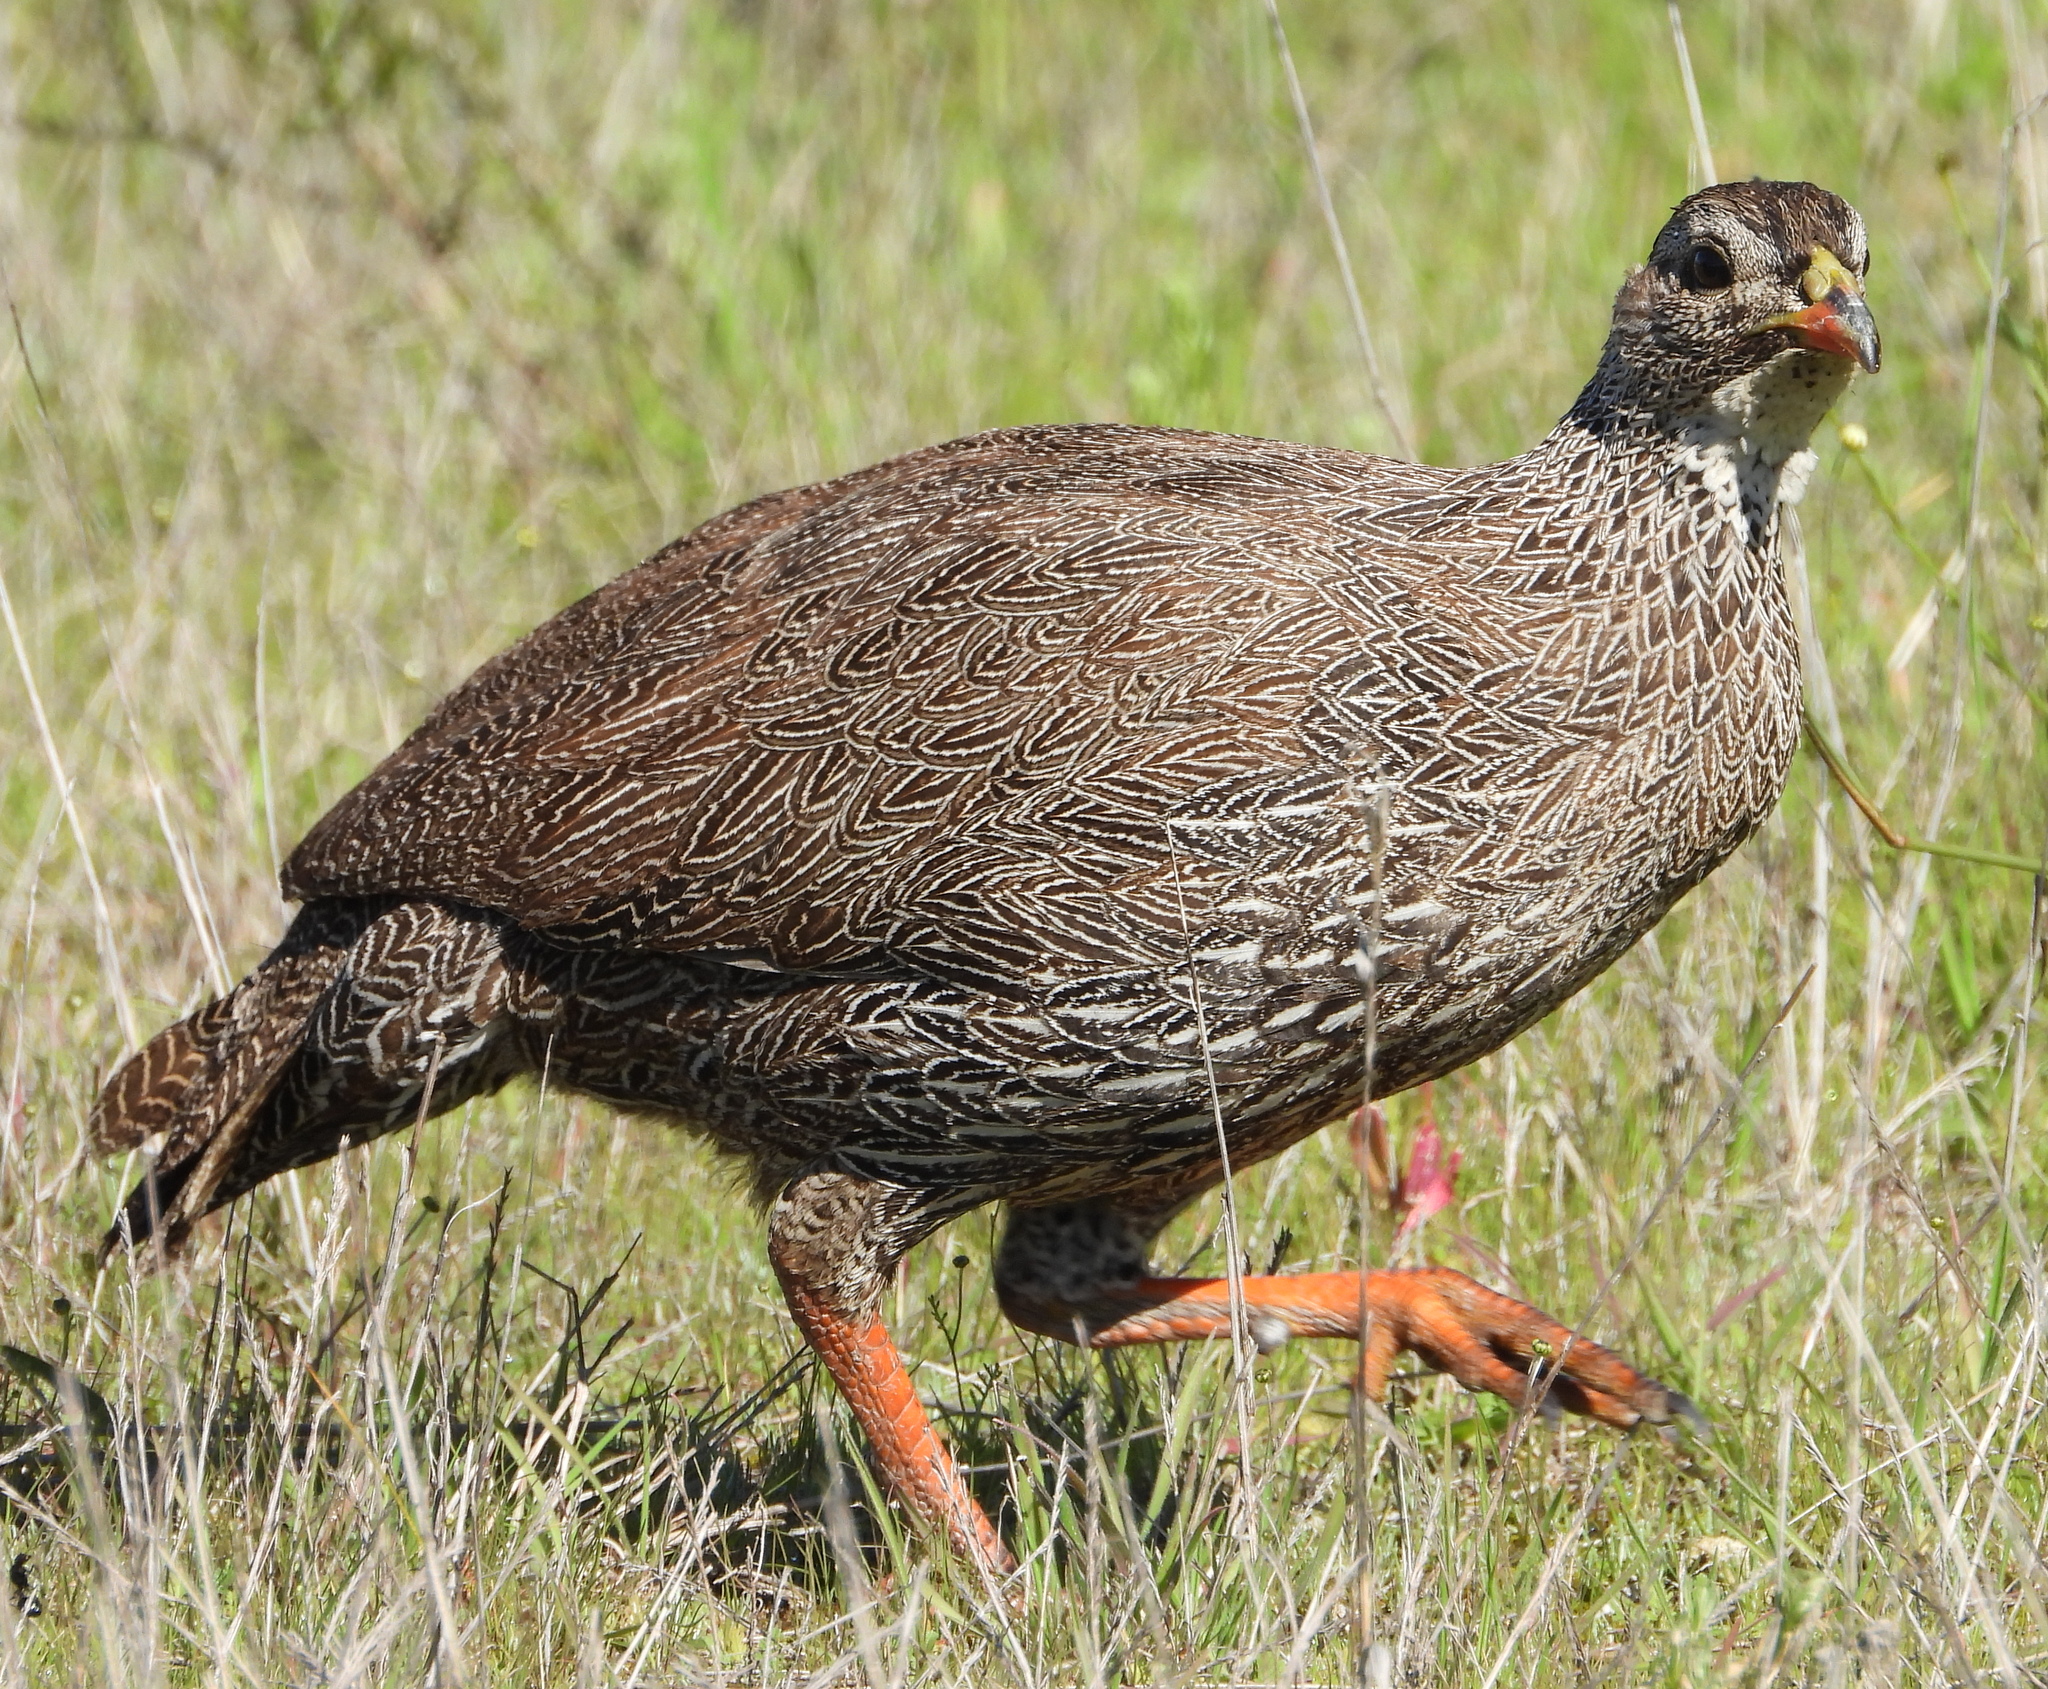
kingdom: Animalia
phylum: Chordata
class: Aves
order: Galliformes
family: Phasianidae
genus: Pternistis
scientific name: Pternistis capensis
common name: Cape spurfowl
